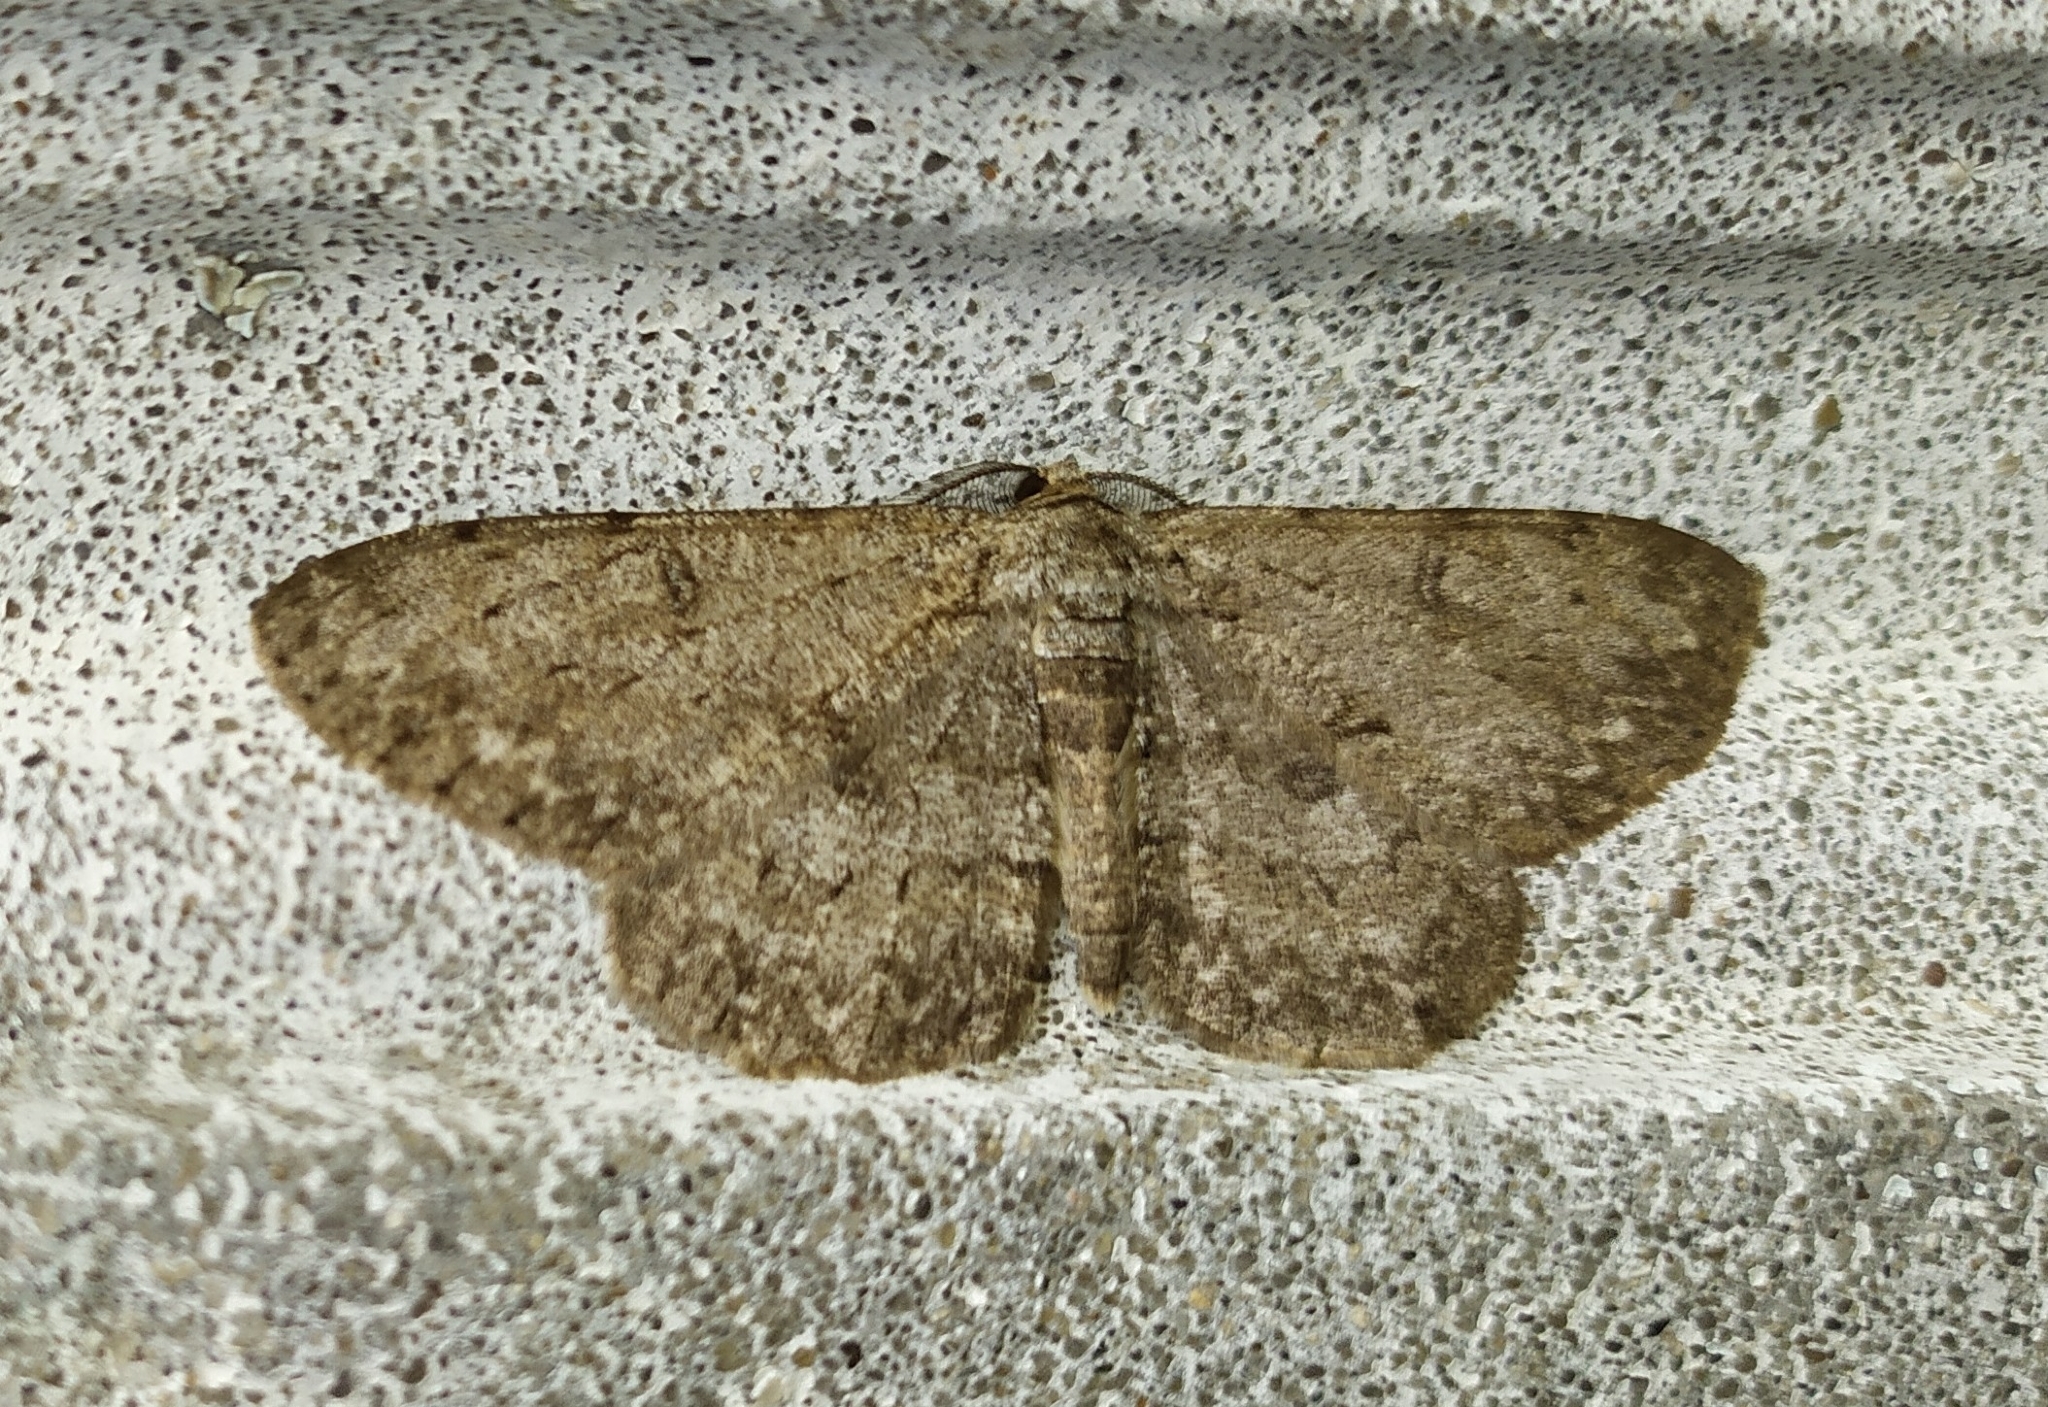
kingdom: Animalia
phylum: Arthropoda
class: Insecta
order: Lepidoptera
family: Geometridae
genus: Hypomecis
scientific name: Hypomecis punctinalis
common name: Pale oak beauty
